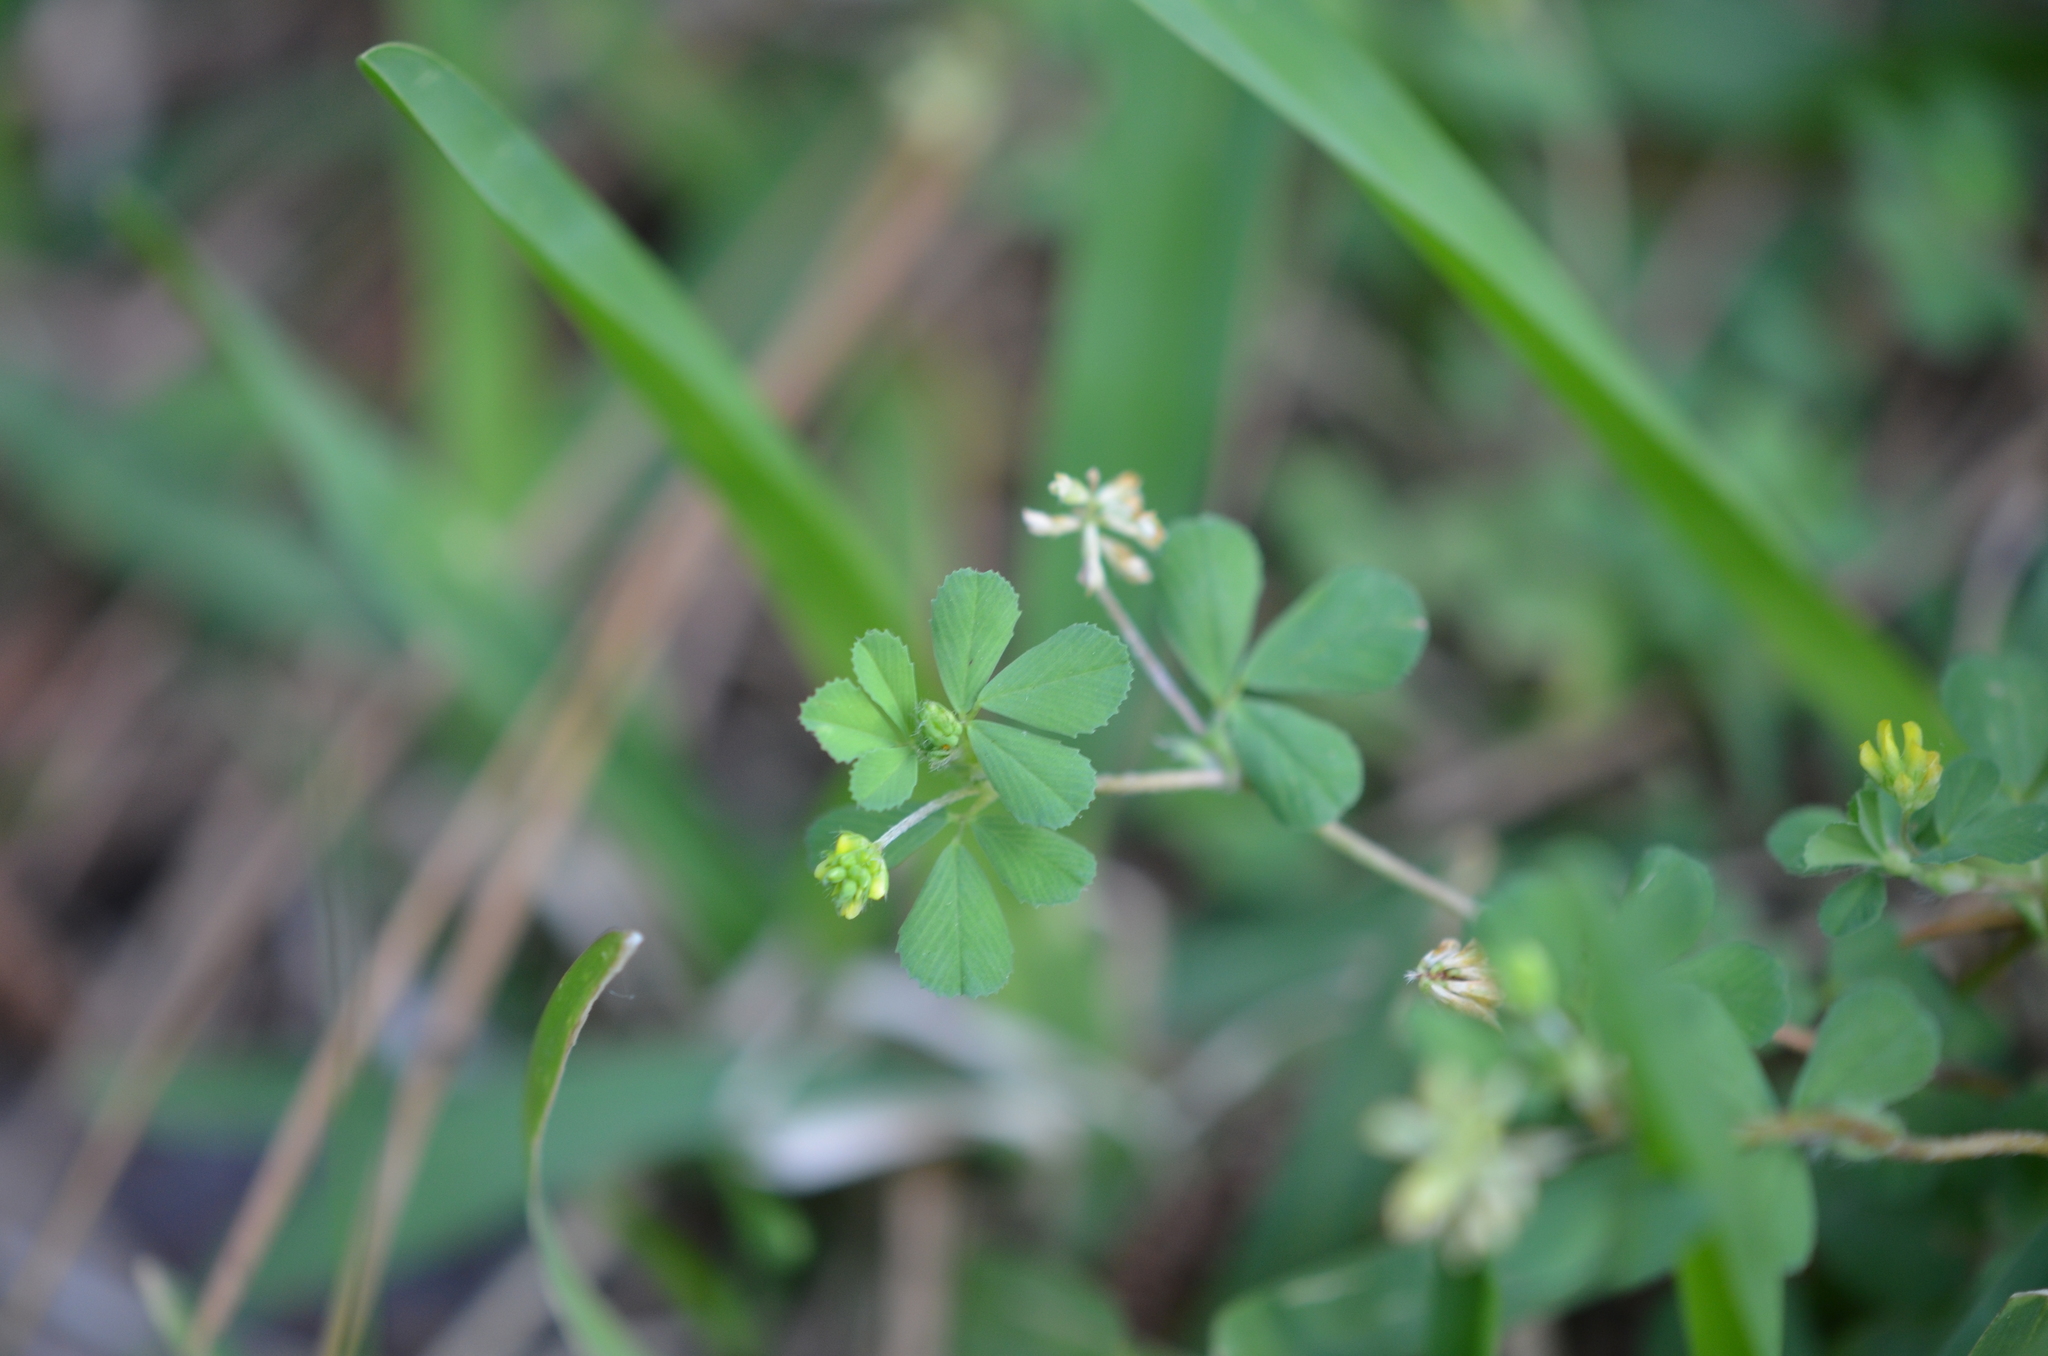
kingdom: Plantae
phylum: Tracheophyta
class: Magnoliopsida
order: Fabales
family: Fabaceae
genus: Trifolium
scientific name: Trifolium dubium
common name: Suckling clover
